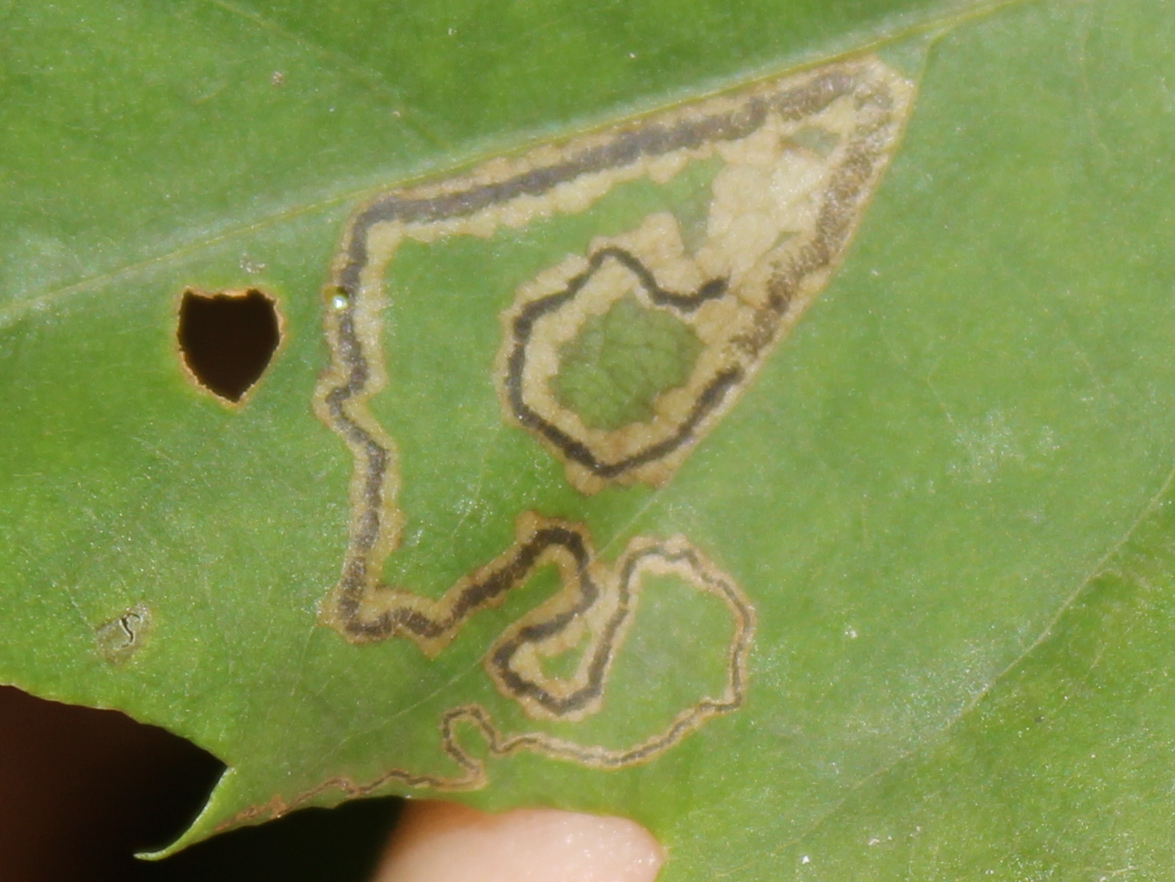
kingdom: Animalia
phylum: Arthropoda
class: Insecta
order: Lepidoptera
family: Nepticulidae
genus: Stigmella
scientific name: Stigmella
